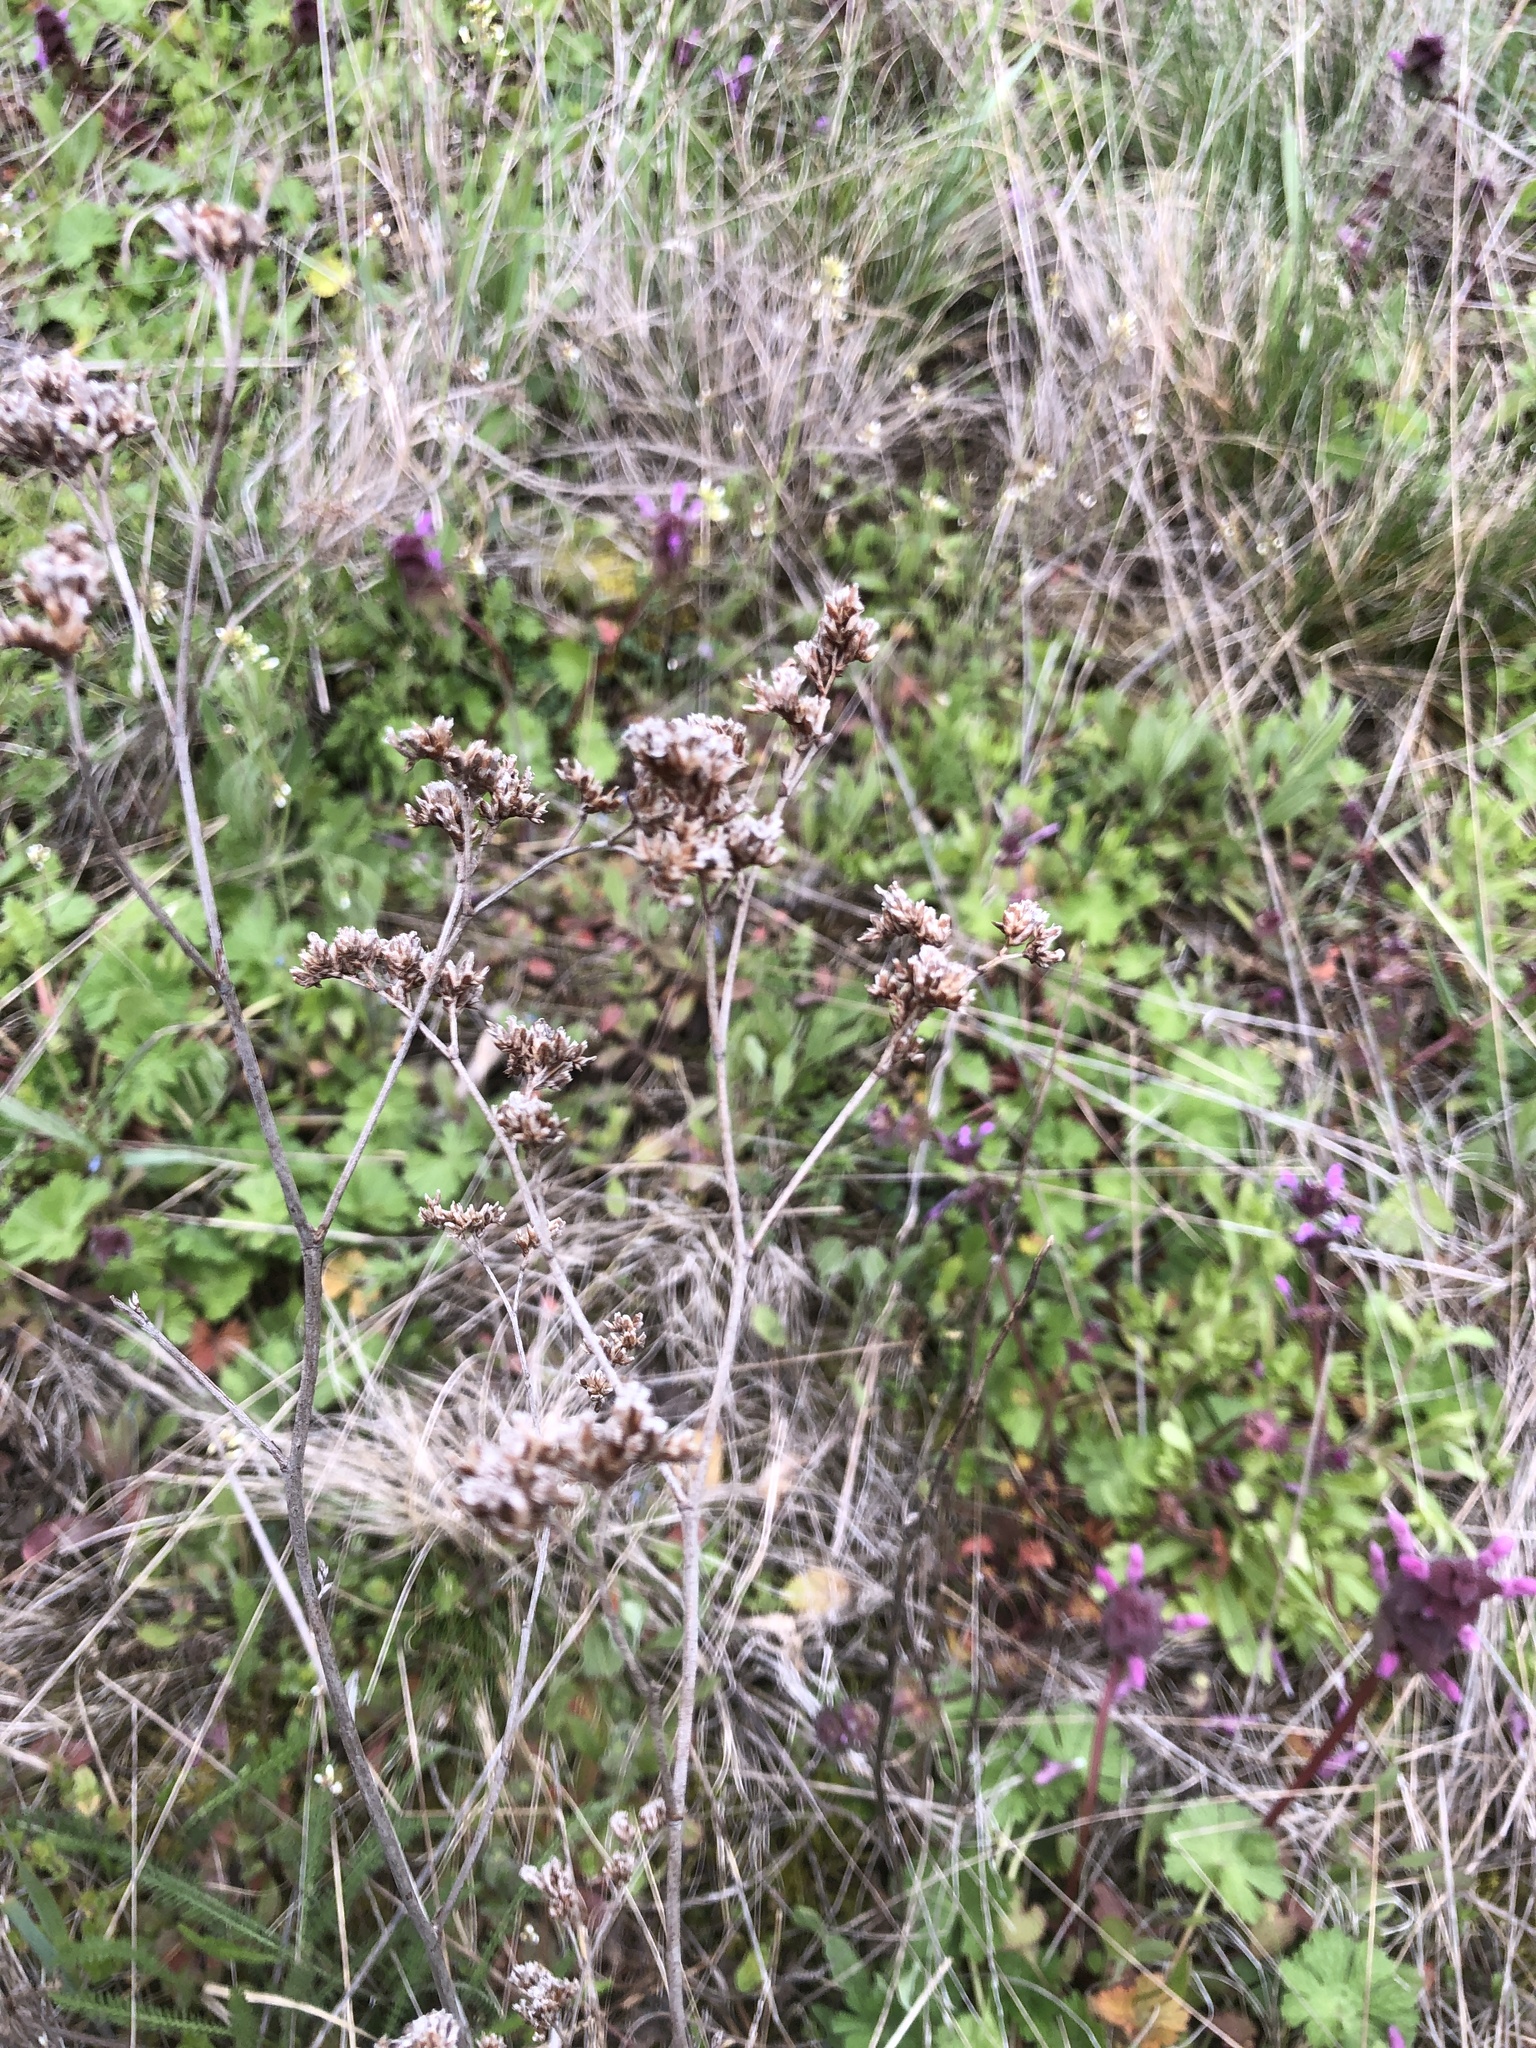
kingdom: Plantae
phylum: Tracheophyta
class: Magnoliopsida
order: Caryophyllales
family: Plumbaginaceae
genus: Limonium
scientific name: Limonium gmelini
